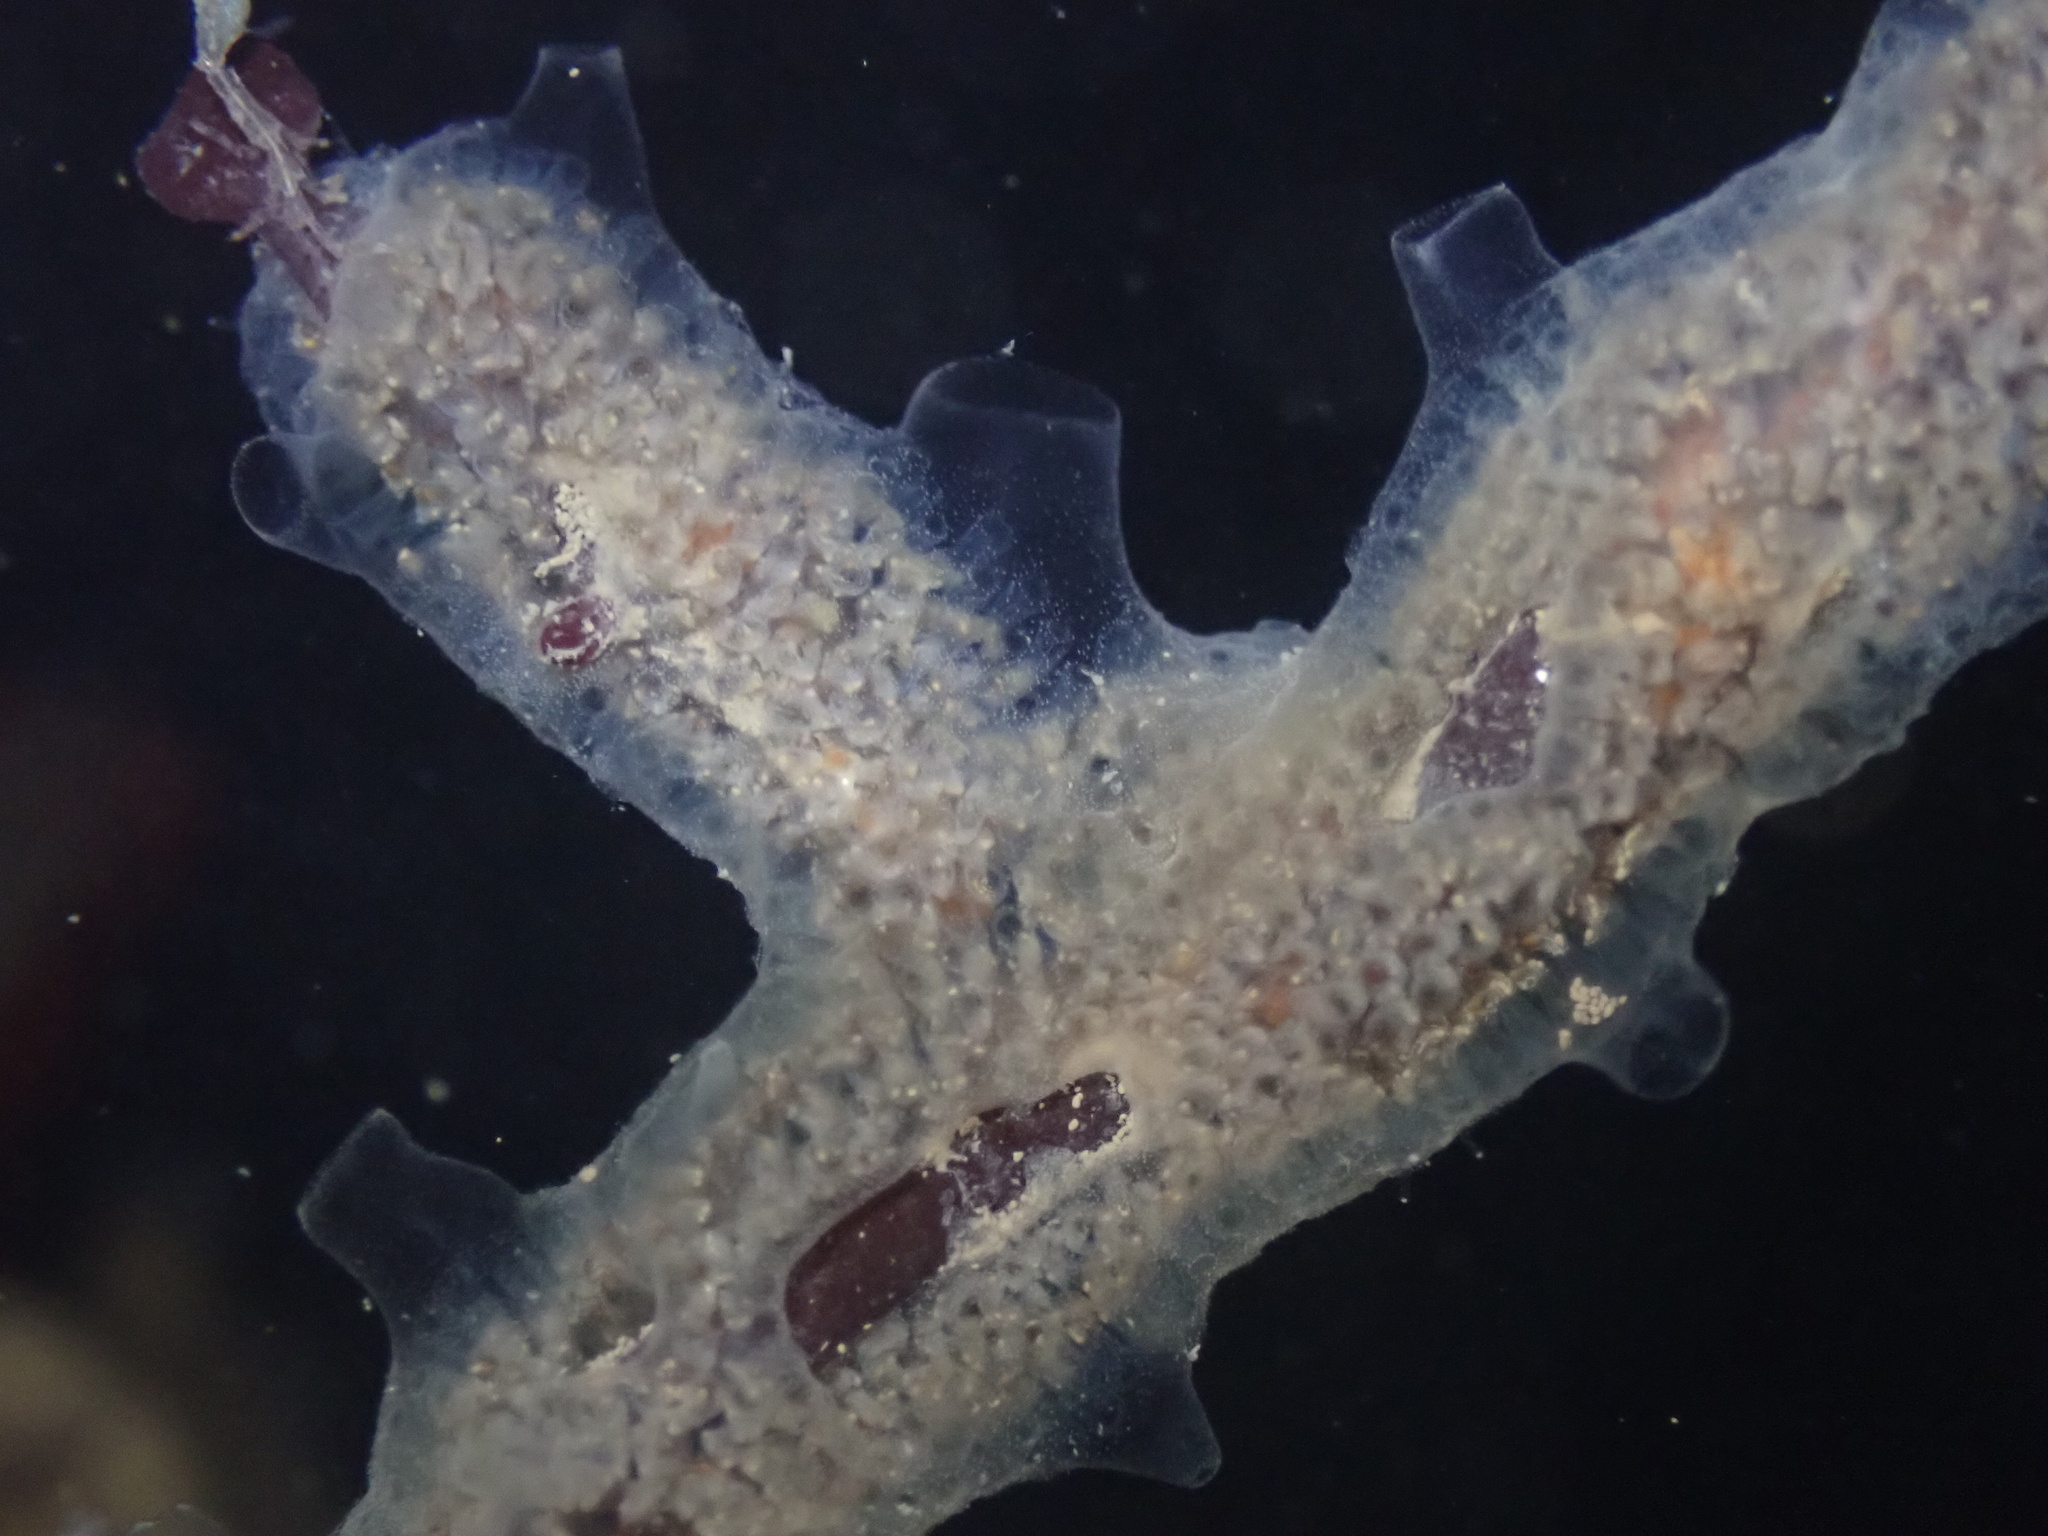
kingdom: Animalia
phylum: Chordata
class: Ascidiacea
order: Aplousobranchia
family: Didemnidae
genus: Diplosoma
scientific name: Diplosoma listerianum
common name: Compound sea squirt
